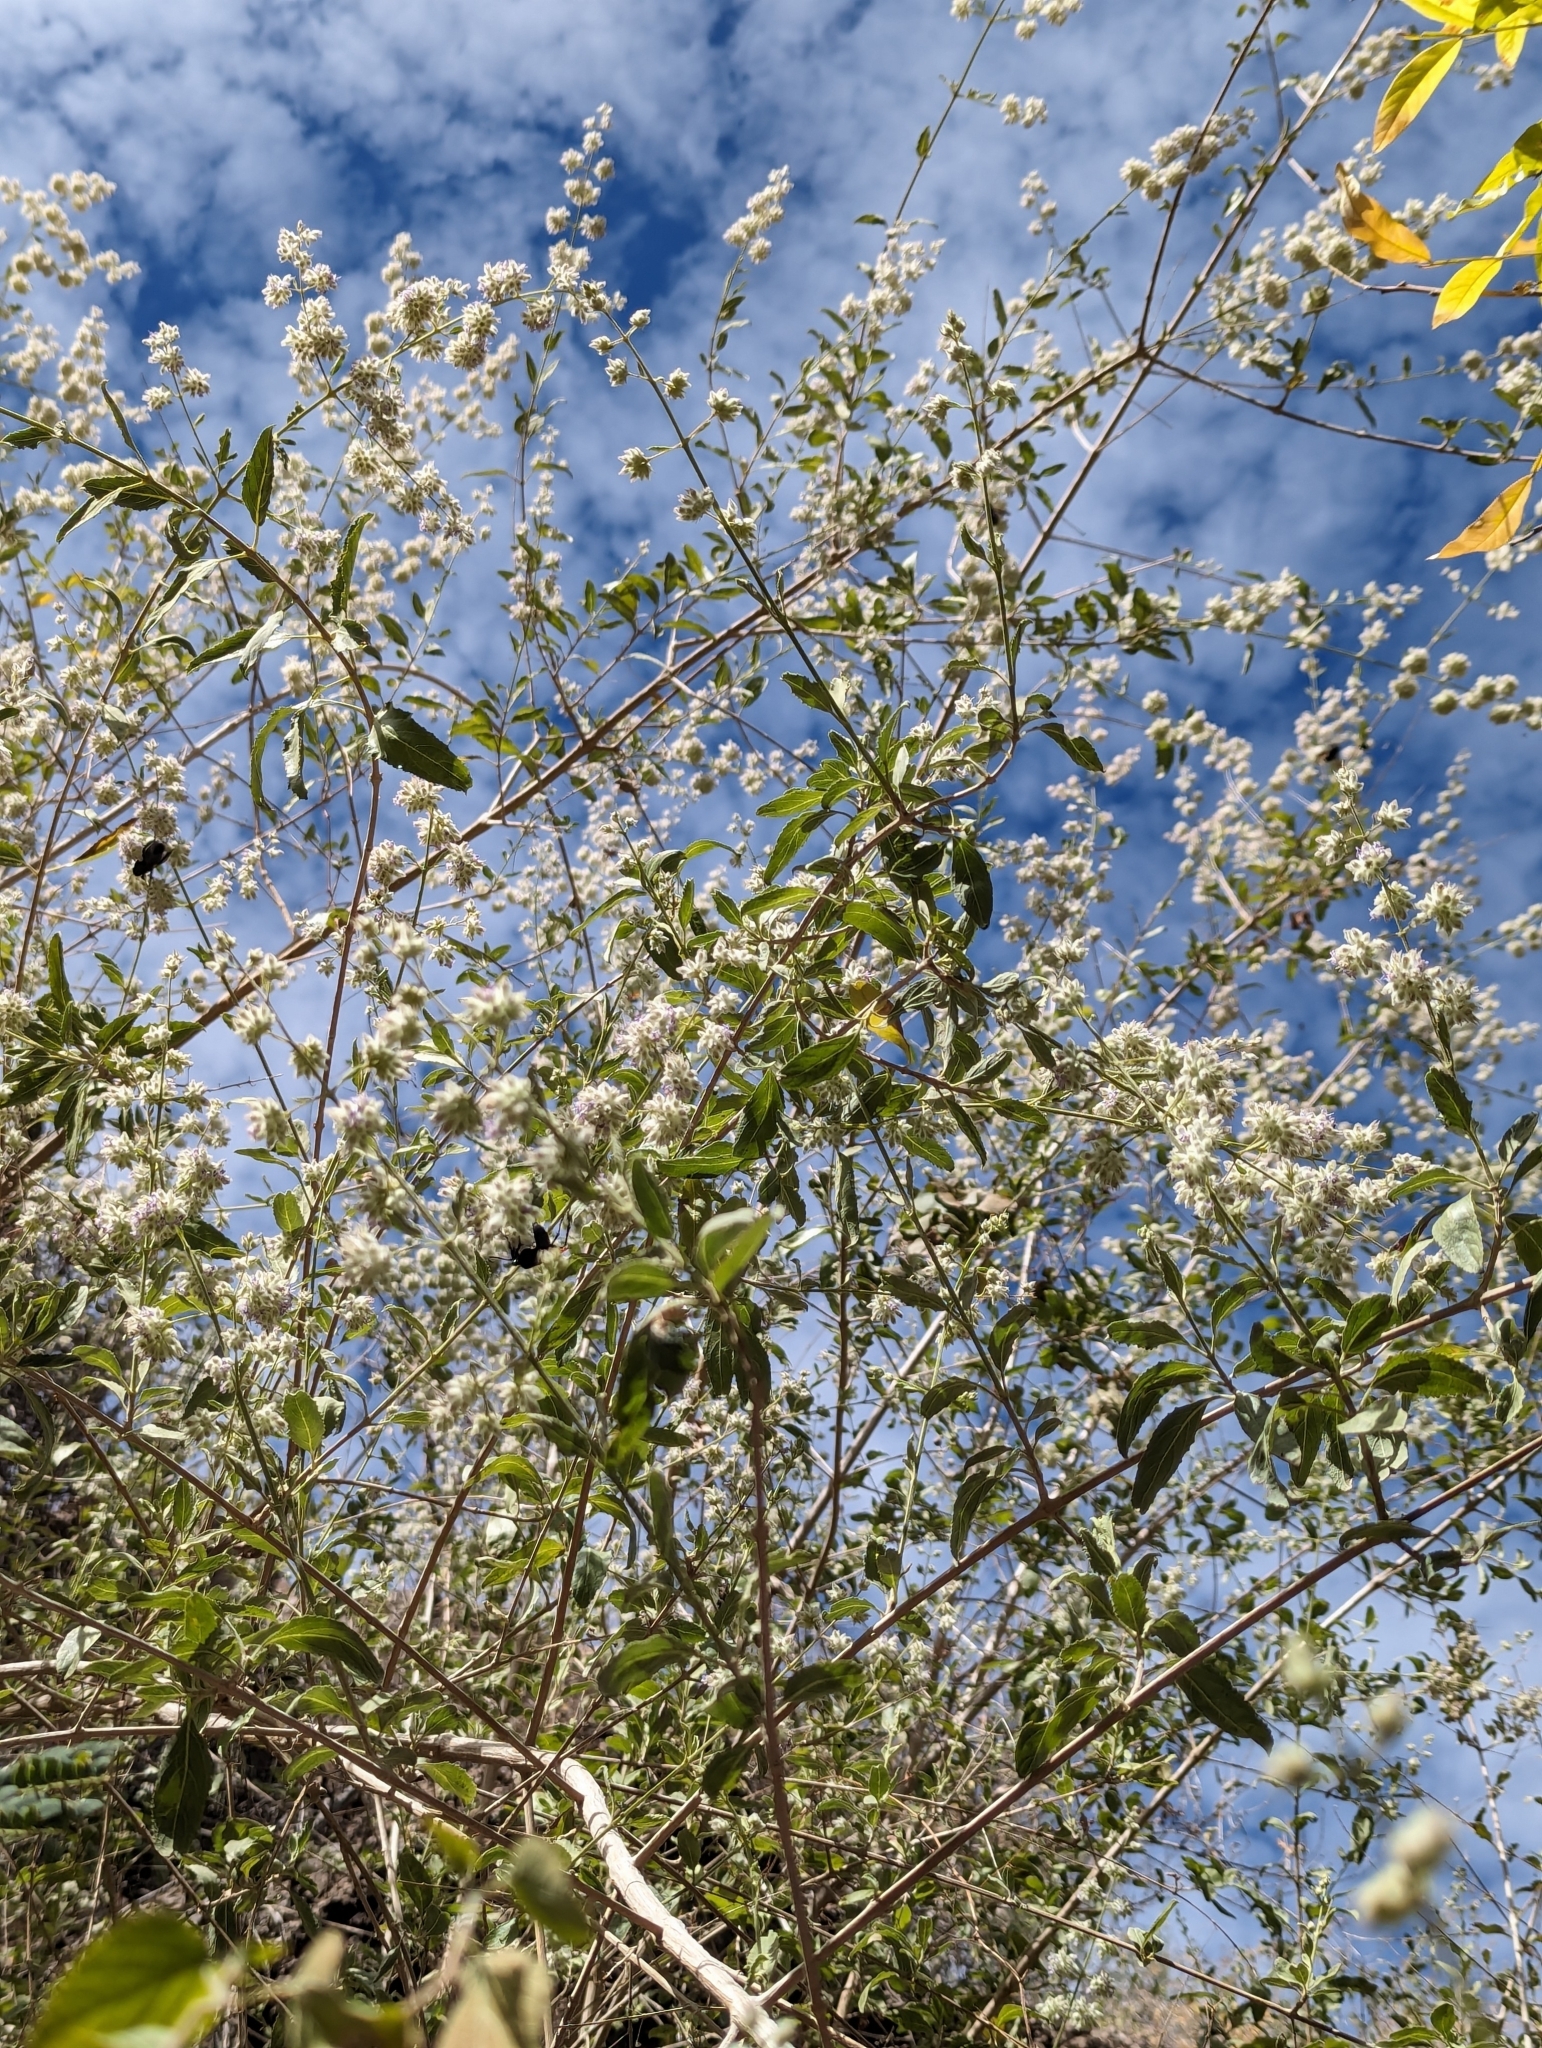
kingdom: Plantae
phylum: Tracheophyta
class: Magnoliopsida
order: Lamiales
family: Lamiaceae
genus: Condea
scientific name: Condea emoryi
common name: Chia
